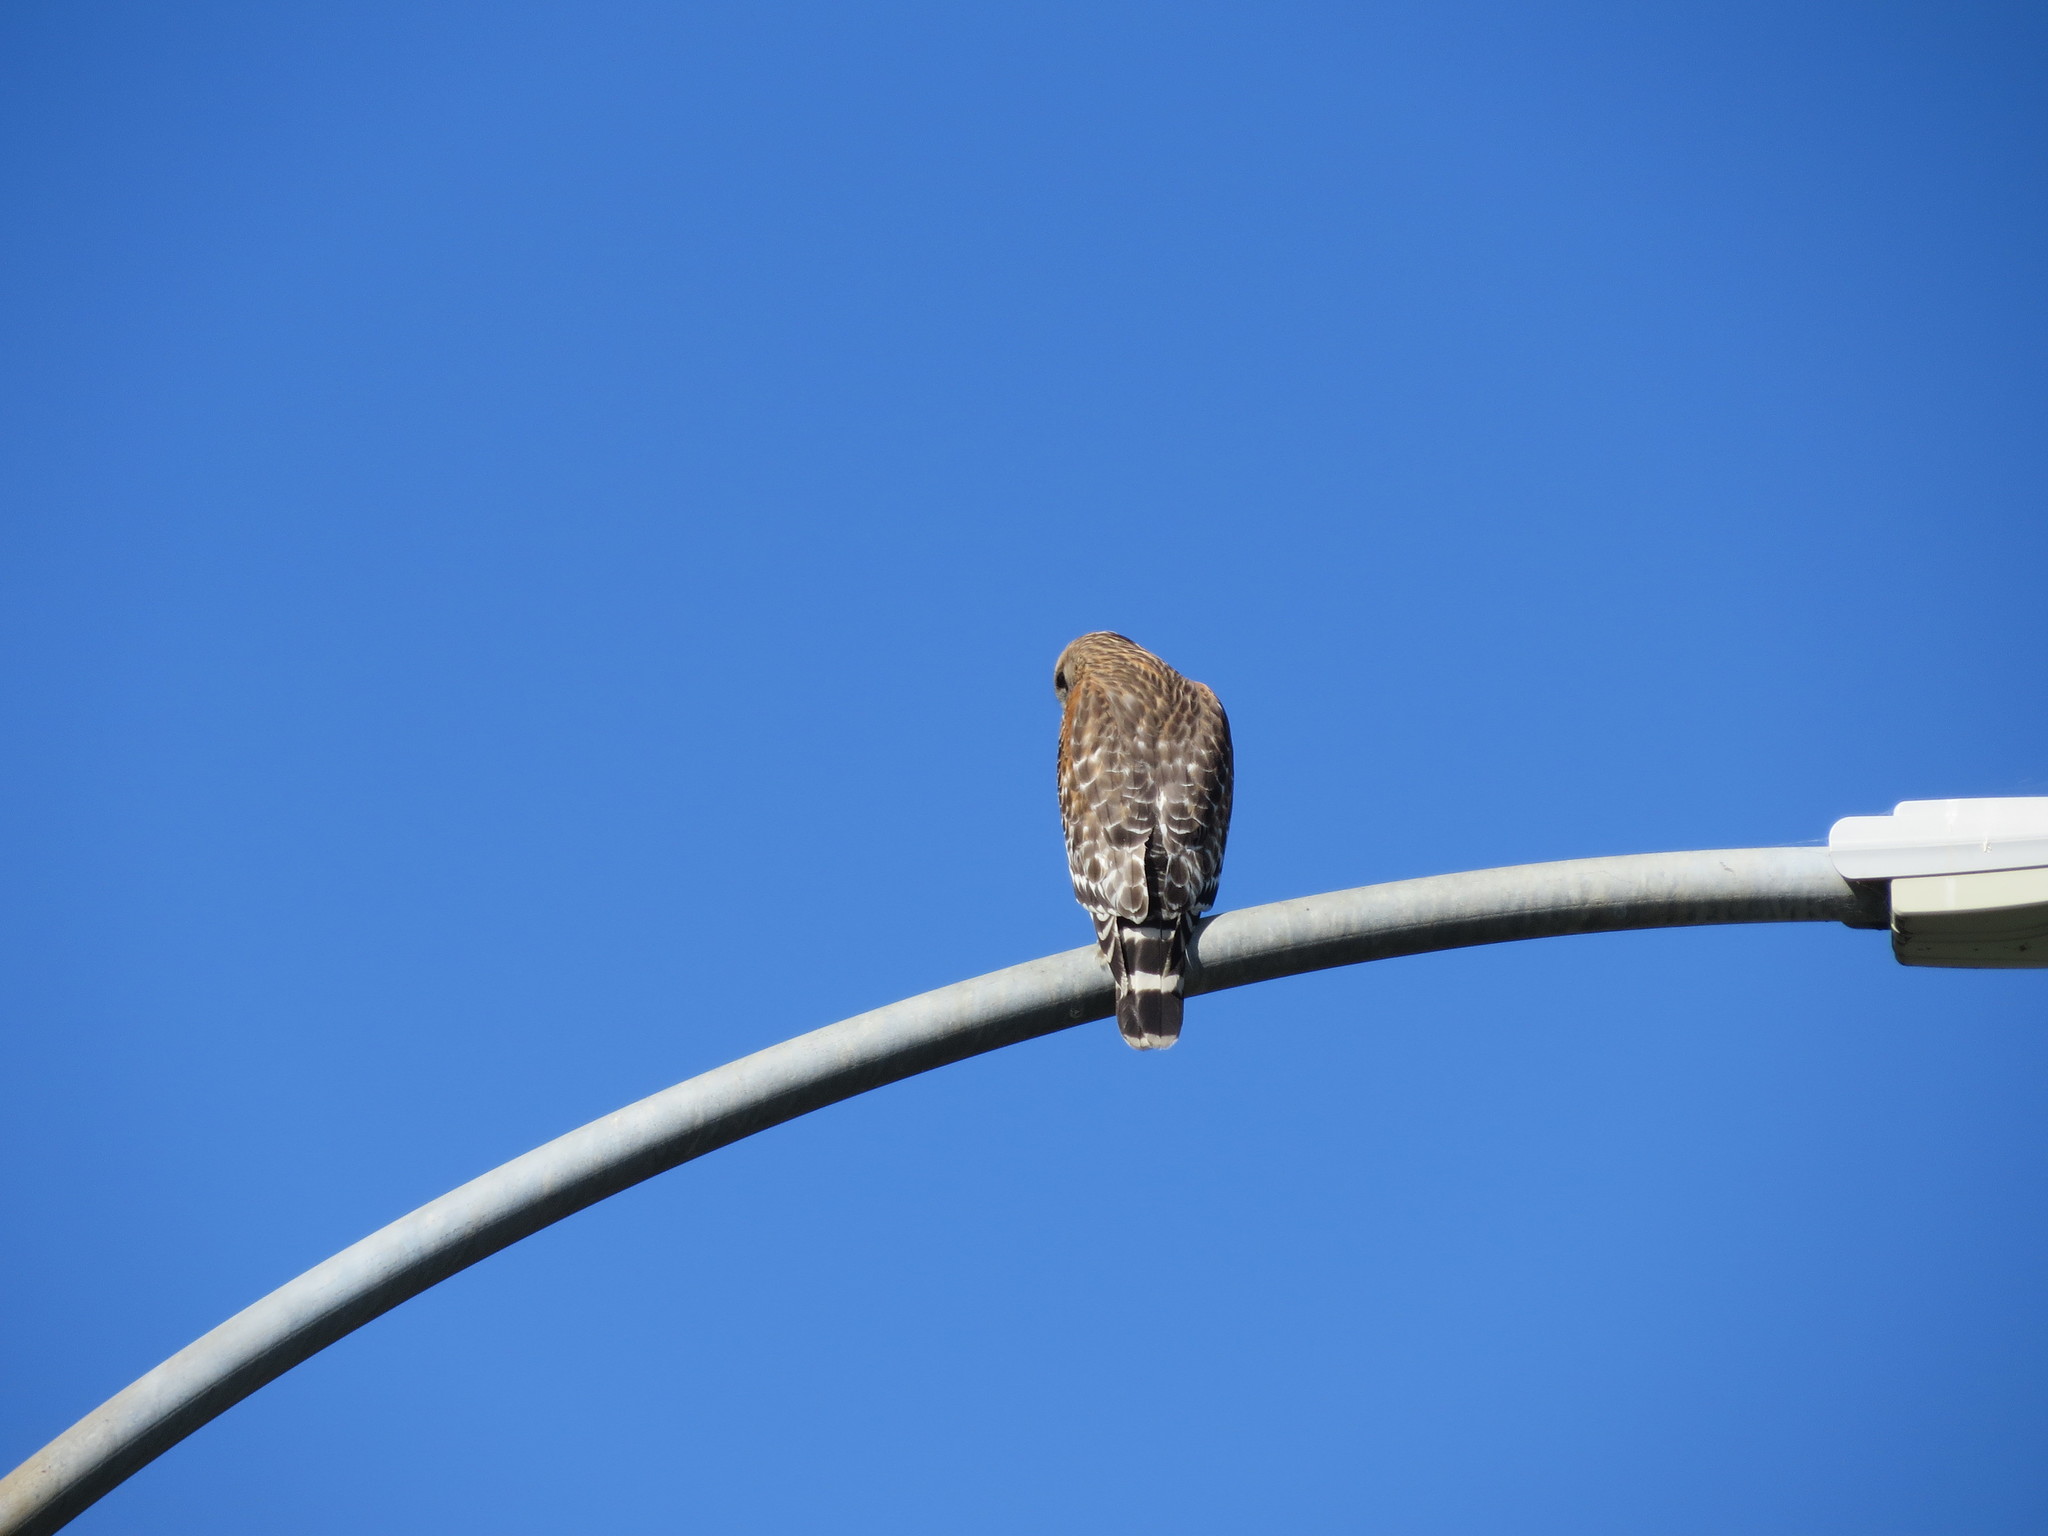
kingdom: Animalia
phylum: Chordata
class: Aves
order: Accipitriformes
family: Accipitridae
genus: Buteo
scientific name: Buteo lineatus
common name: Red-shouldered hawk
